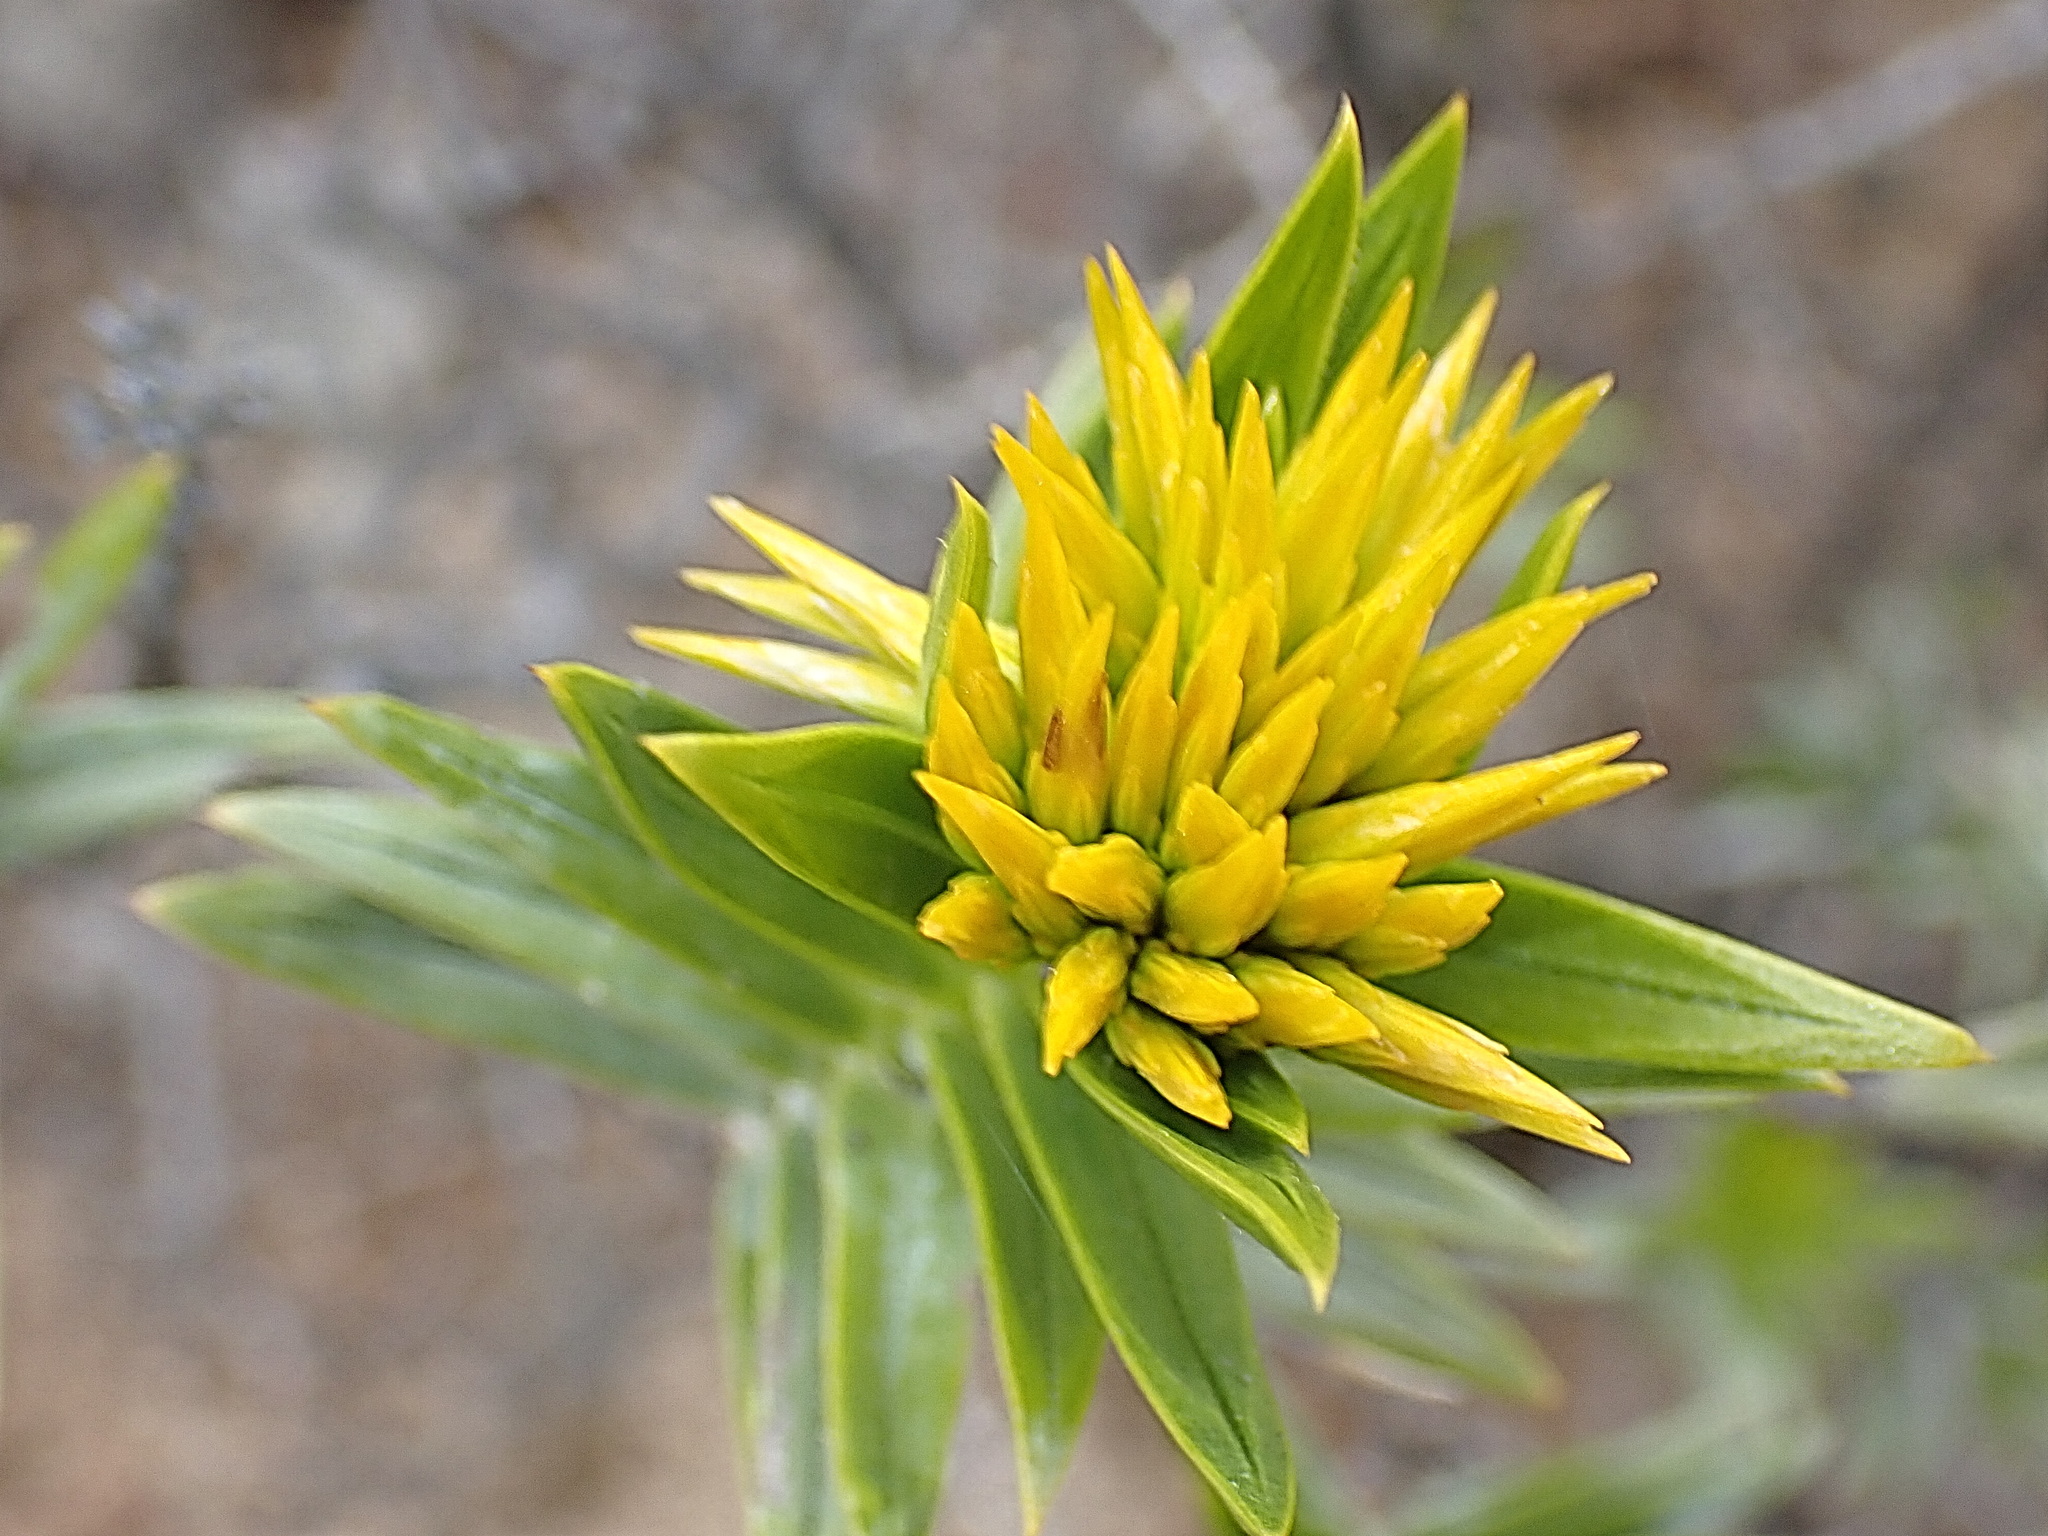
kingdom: Plantae
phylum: Tracheophyta
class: Magnoliopsida
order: Asterales
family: Asteraceae
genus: Pteronia
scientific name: Pteronia fasciculata
